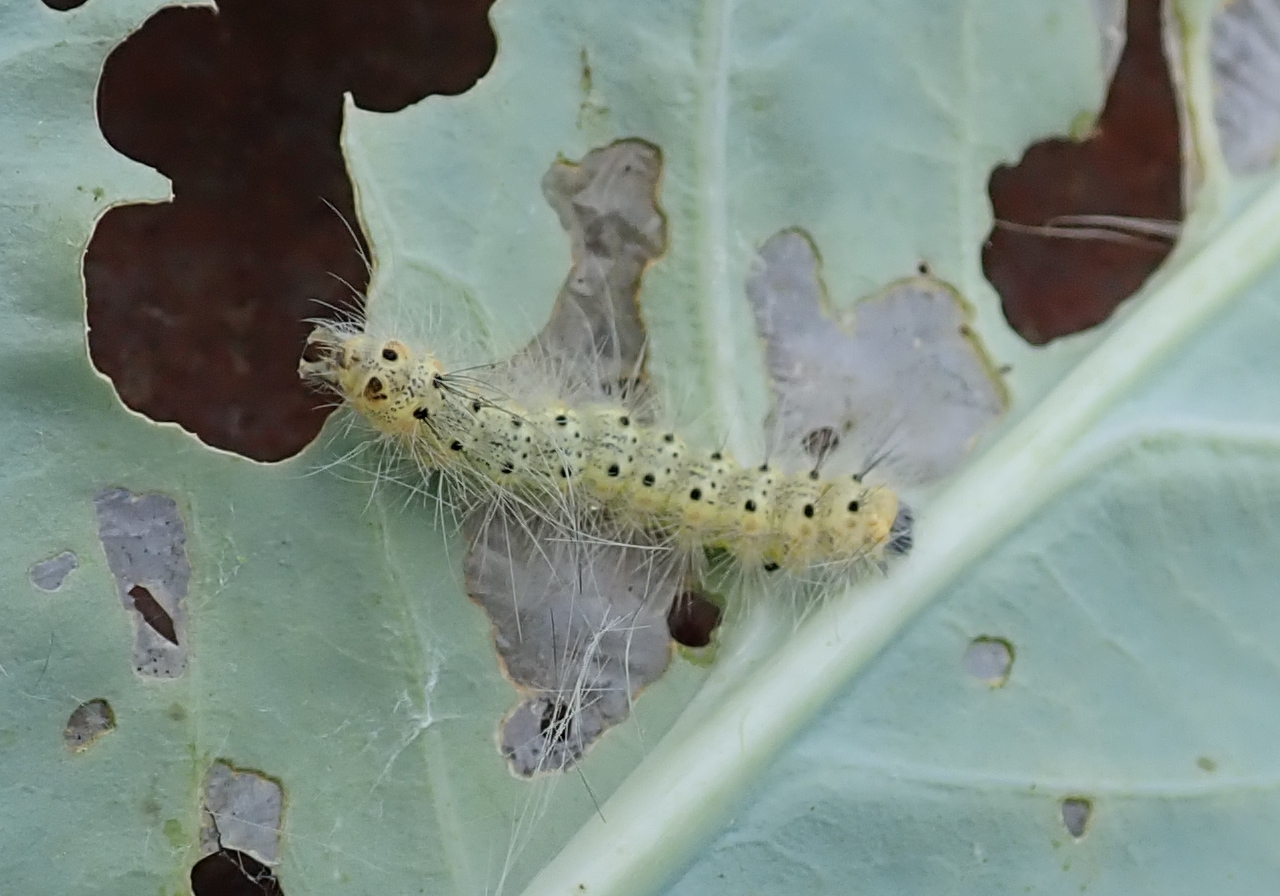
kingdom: Animalia
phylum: Arthropoda
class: Insecta
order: Lepidoptera
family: Erebidae
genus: Hyphantria
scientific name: Hyphantria cunea
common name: American white moth
